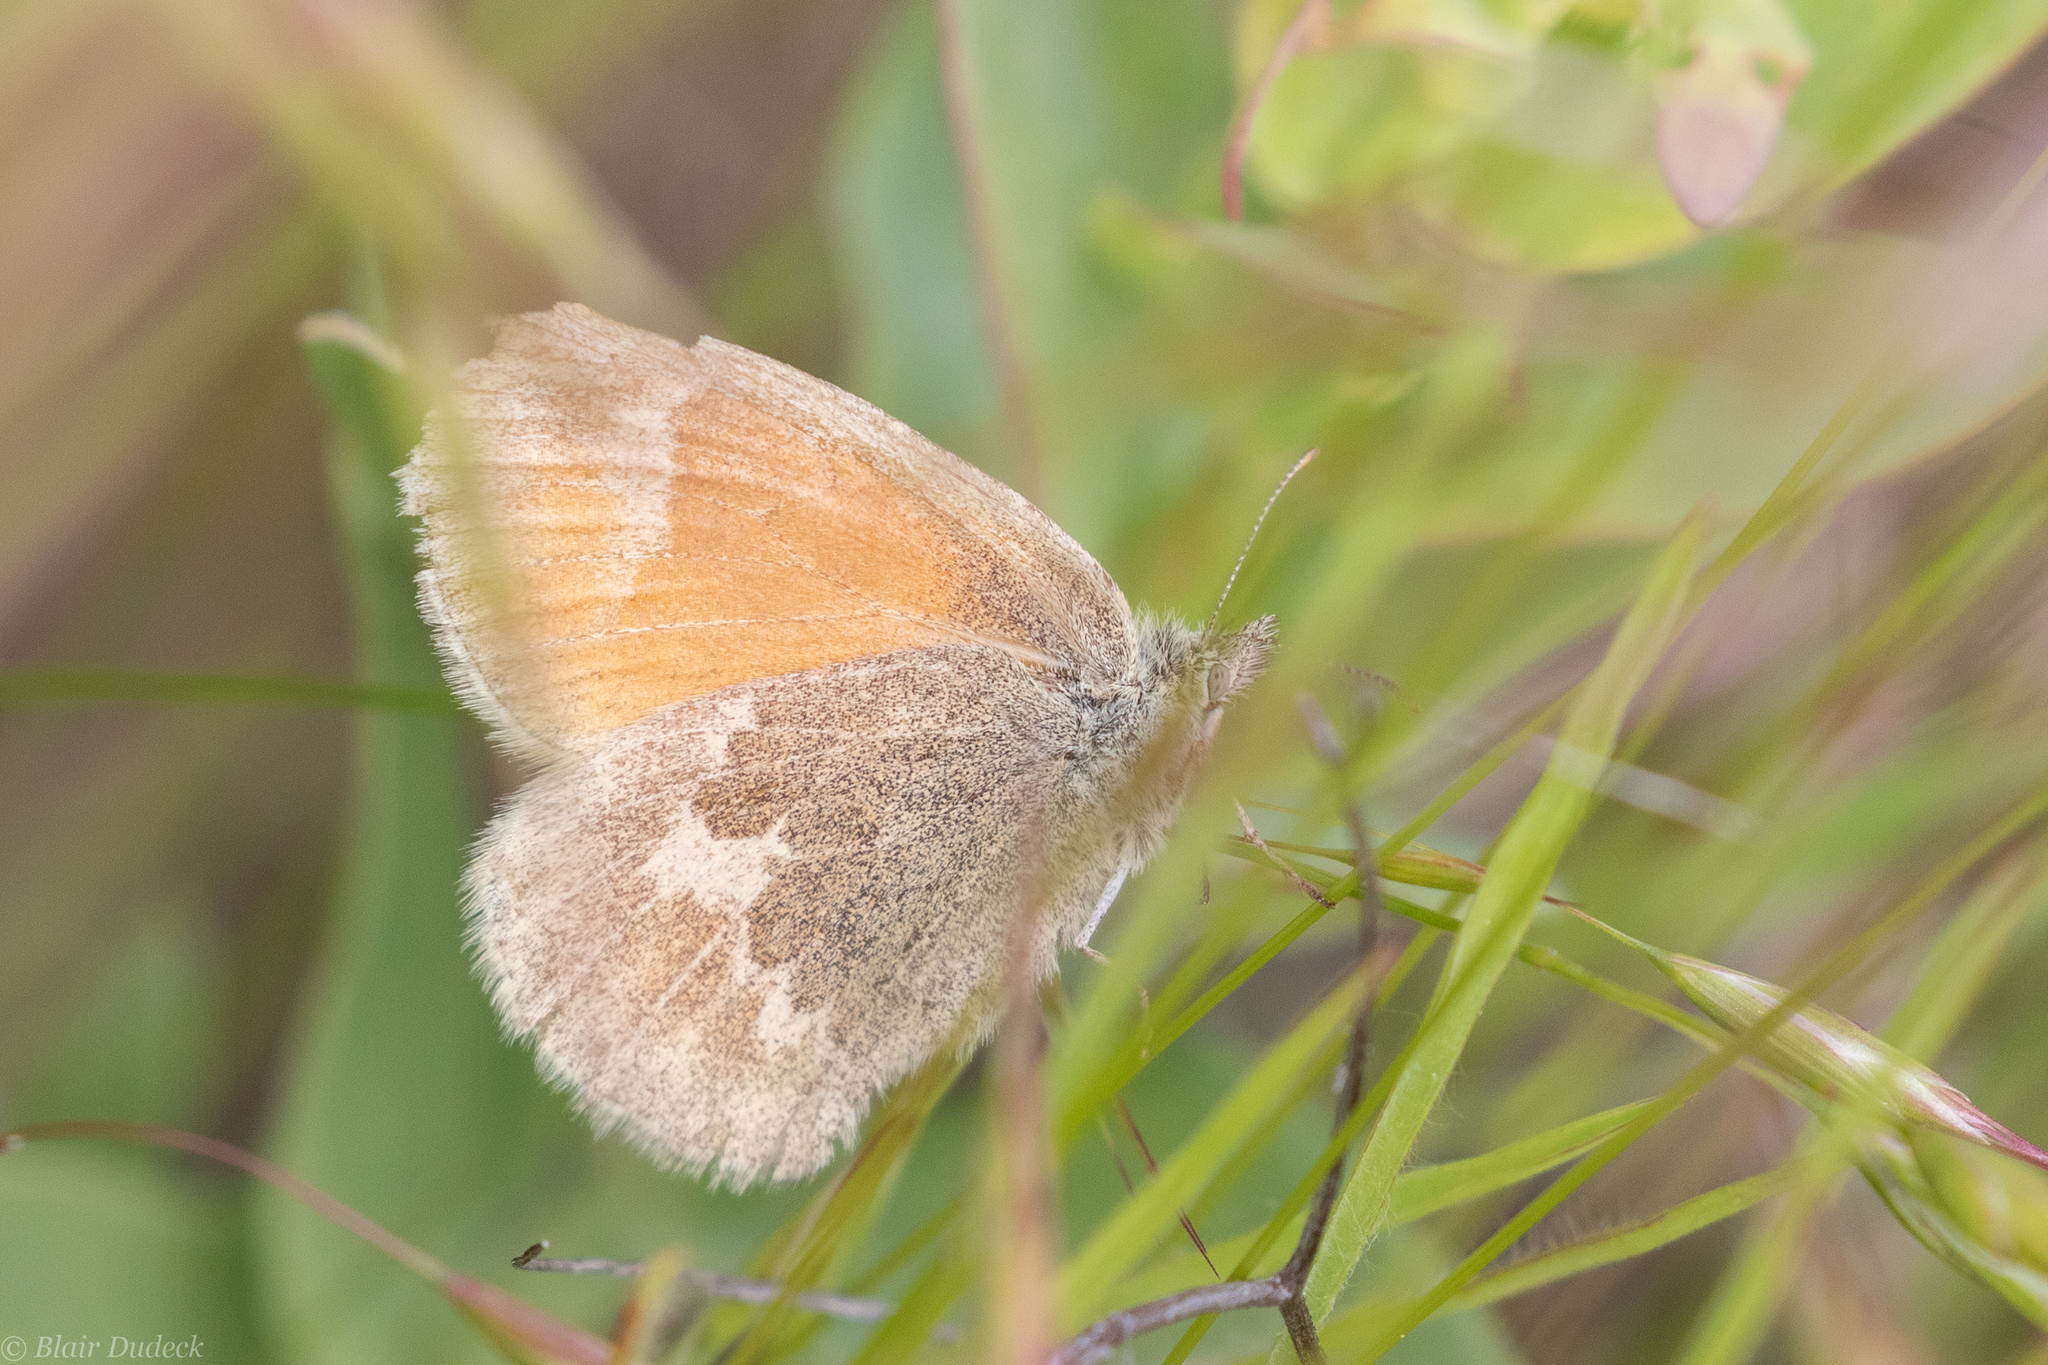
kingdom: Animalia
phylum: Arthropoda
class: Insecta
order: Lepidoptera
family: Nymphalidae
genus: Coenonympha
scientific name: Coenonympha california
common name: Common ringlet
